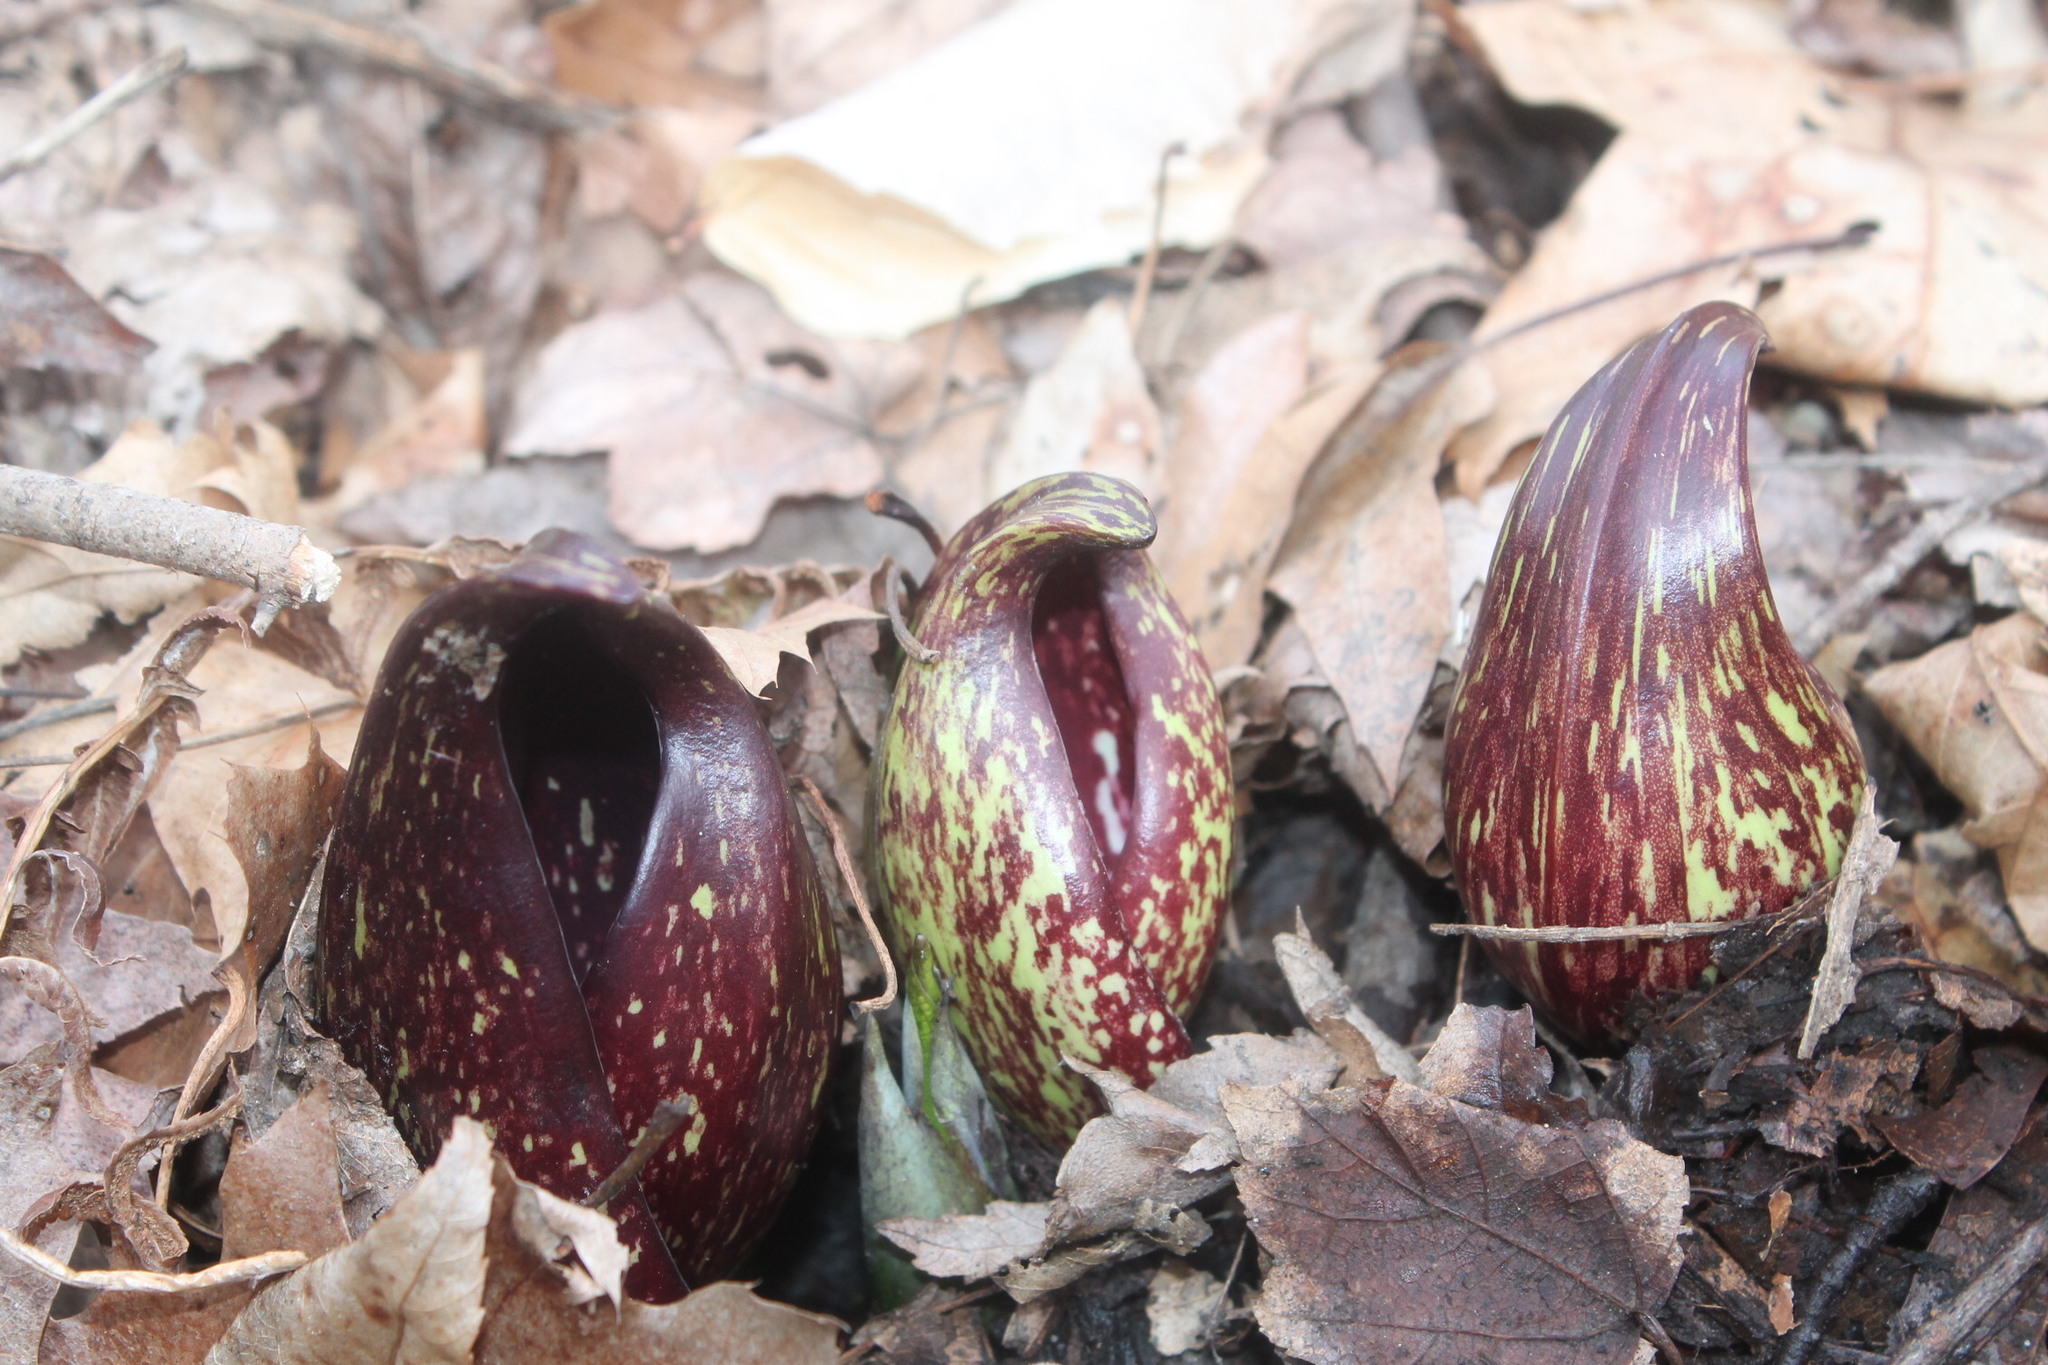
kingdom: Plantae
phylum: Tracheophyta
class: Liliopsida
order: Alismatales
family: Araceae
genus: Symplocarpus
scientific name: Symplocarpus foetidus
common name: Eastern skunk cabbage
